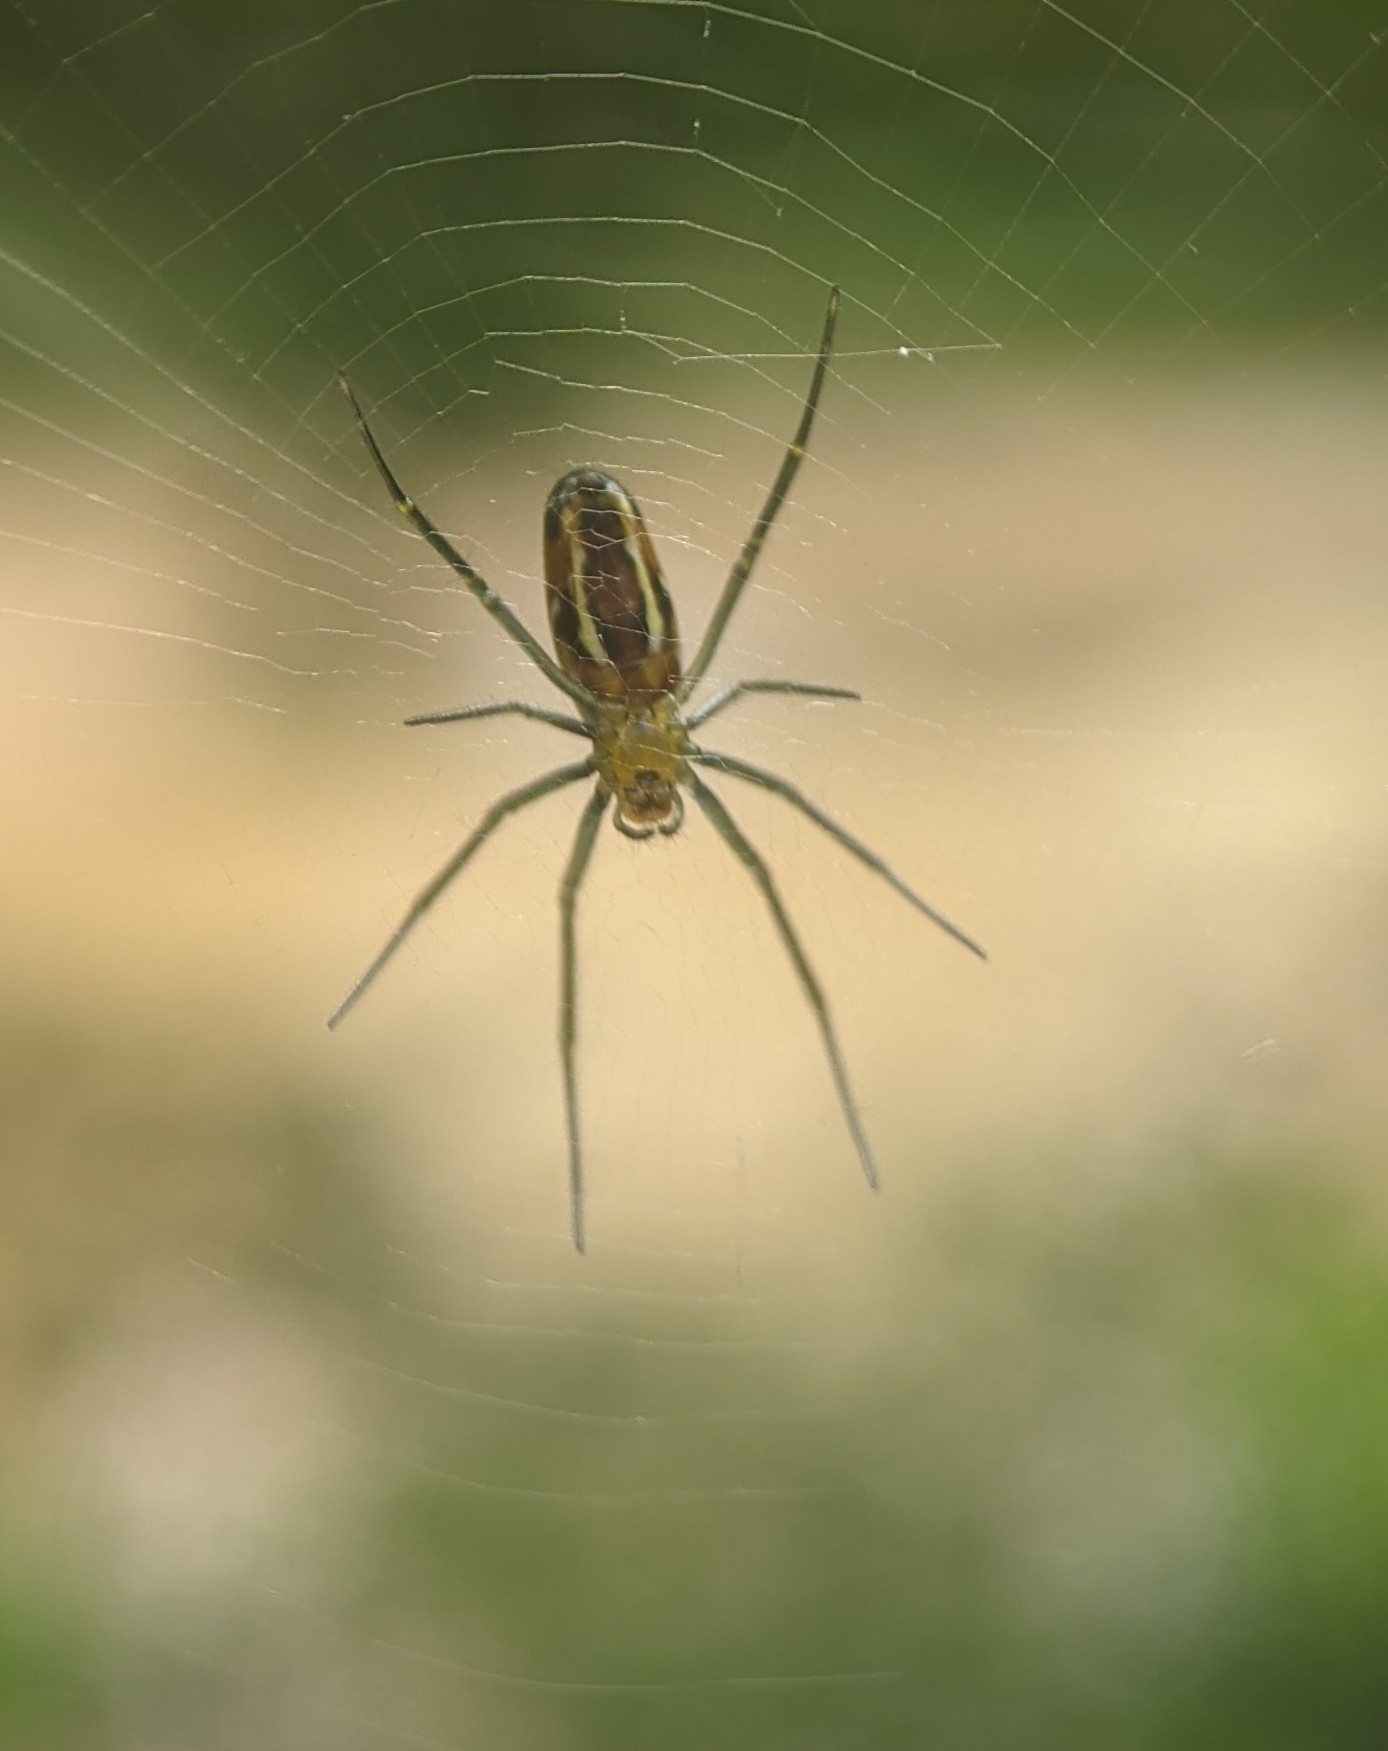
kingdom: Animalia
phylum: Arthropoda
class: Arachnida
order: Araneae
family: Araneidae
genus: Nephila
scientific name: Nephila pilipes
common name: Giant golden orb weaver
